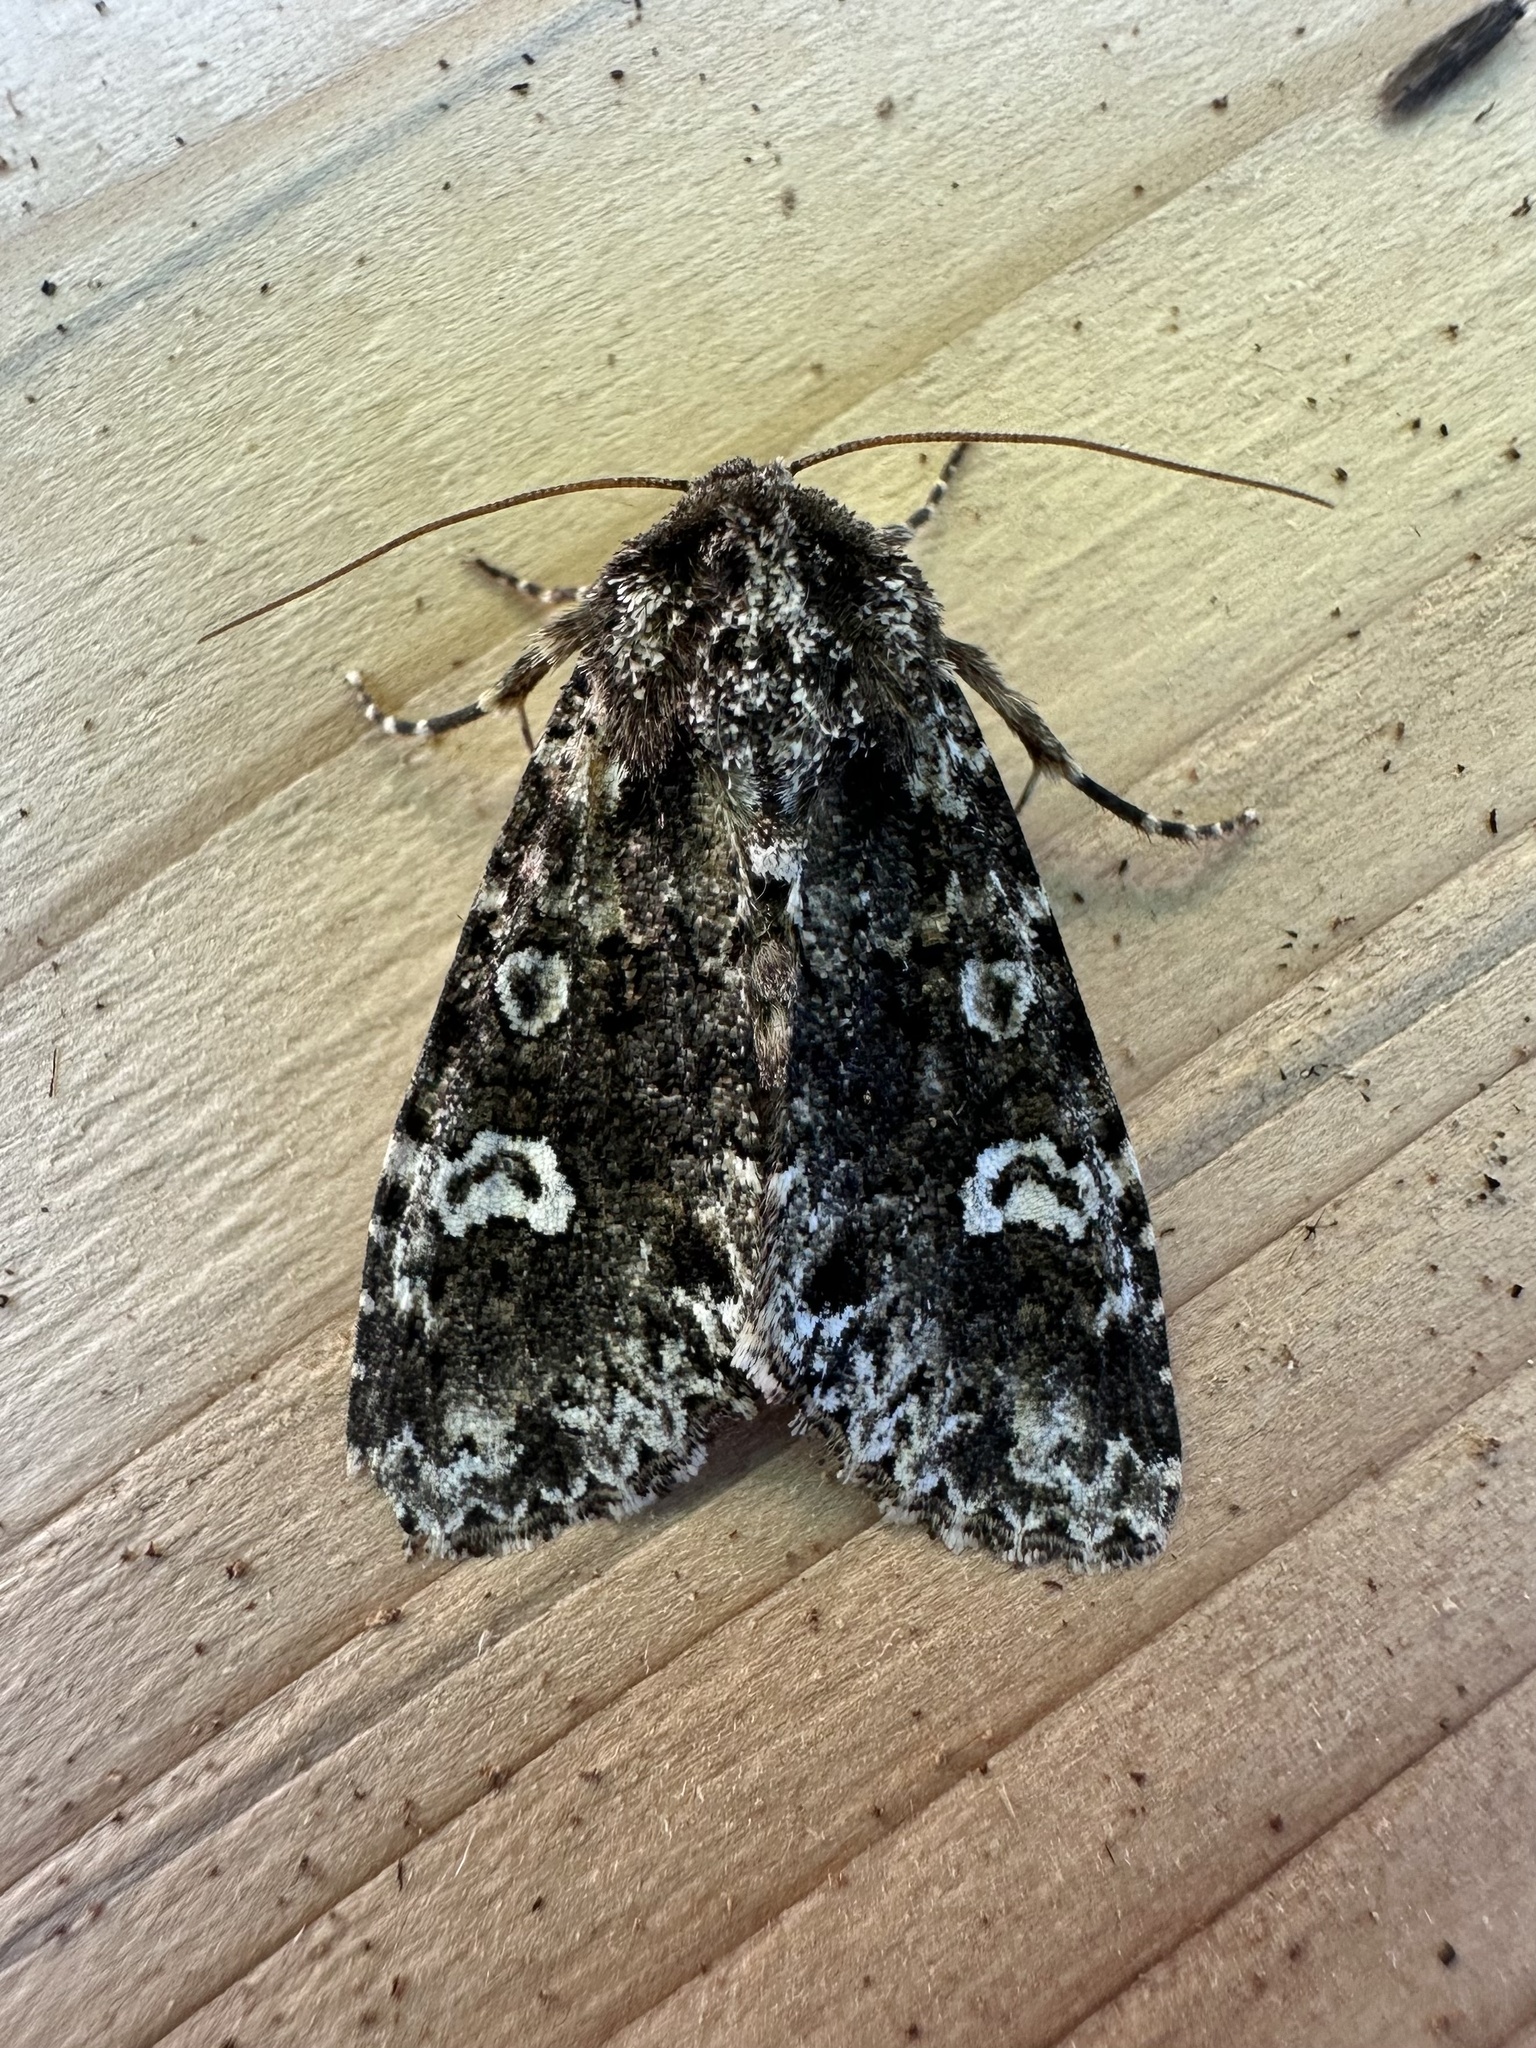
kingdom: Animalia
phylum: Arthropoda
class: Insecta
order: Lepidoptera
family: Noctuidae
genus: Melanchra
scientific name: Melanchra adjuncta
